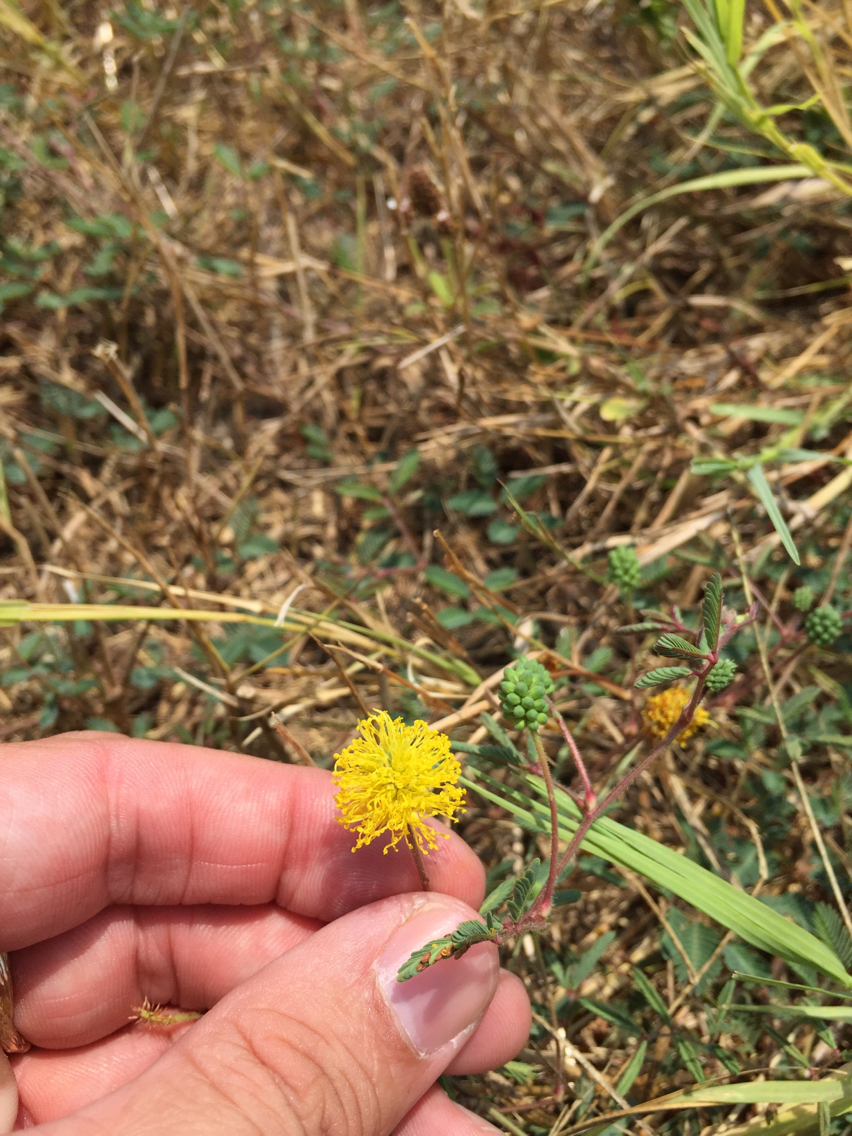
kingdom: Plantae
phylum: Tracheophyta
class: Magnoliopsida
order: Fabales
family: Fabaceae
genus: Neptunia
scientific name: Neptunia lutea
